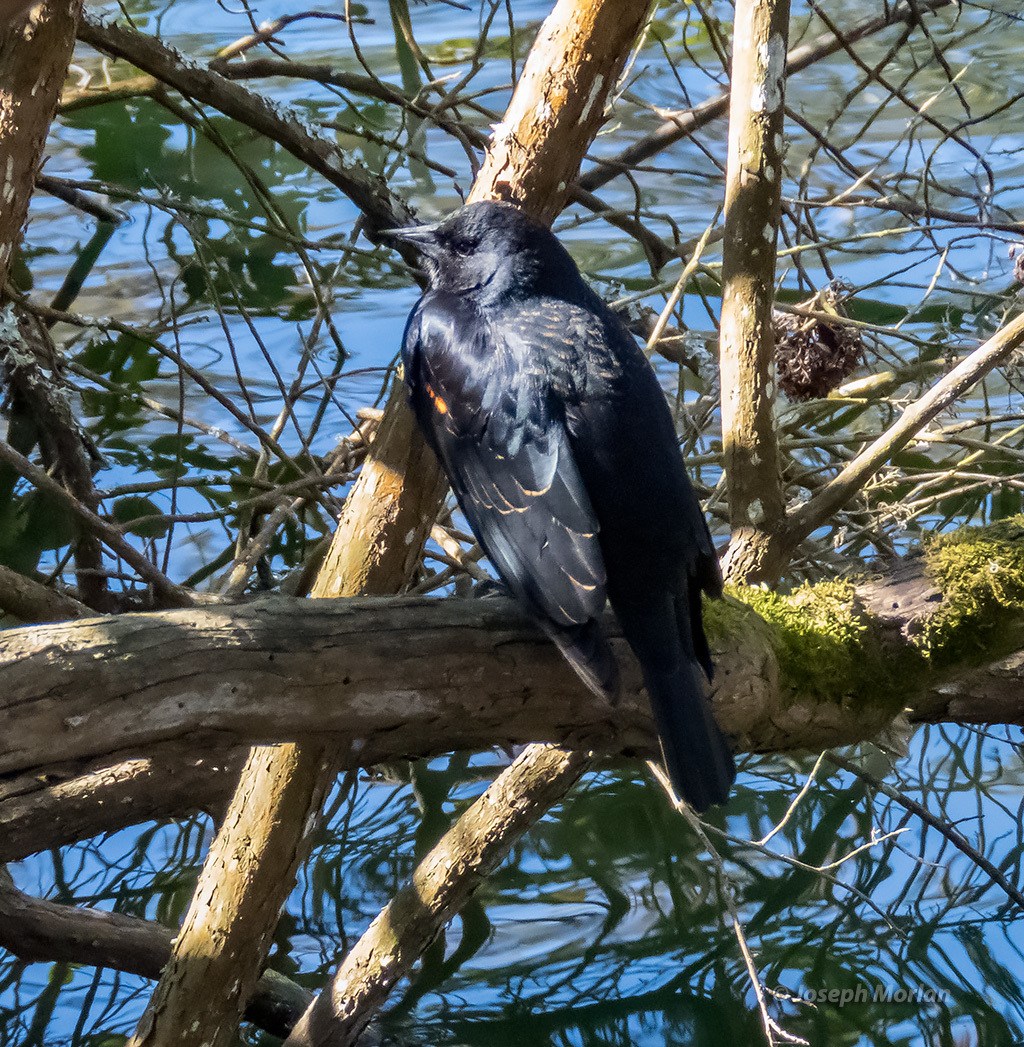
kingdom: Animalia
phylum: Chordata
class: Aves
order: Passeriformes
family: Icteridae
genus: Agelaius
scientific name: Agelaius phoeniceus
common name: Red-winged blackbird
